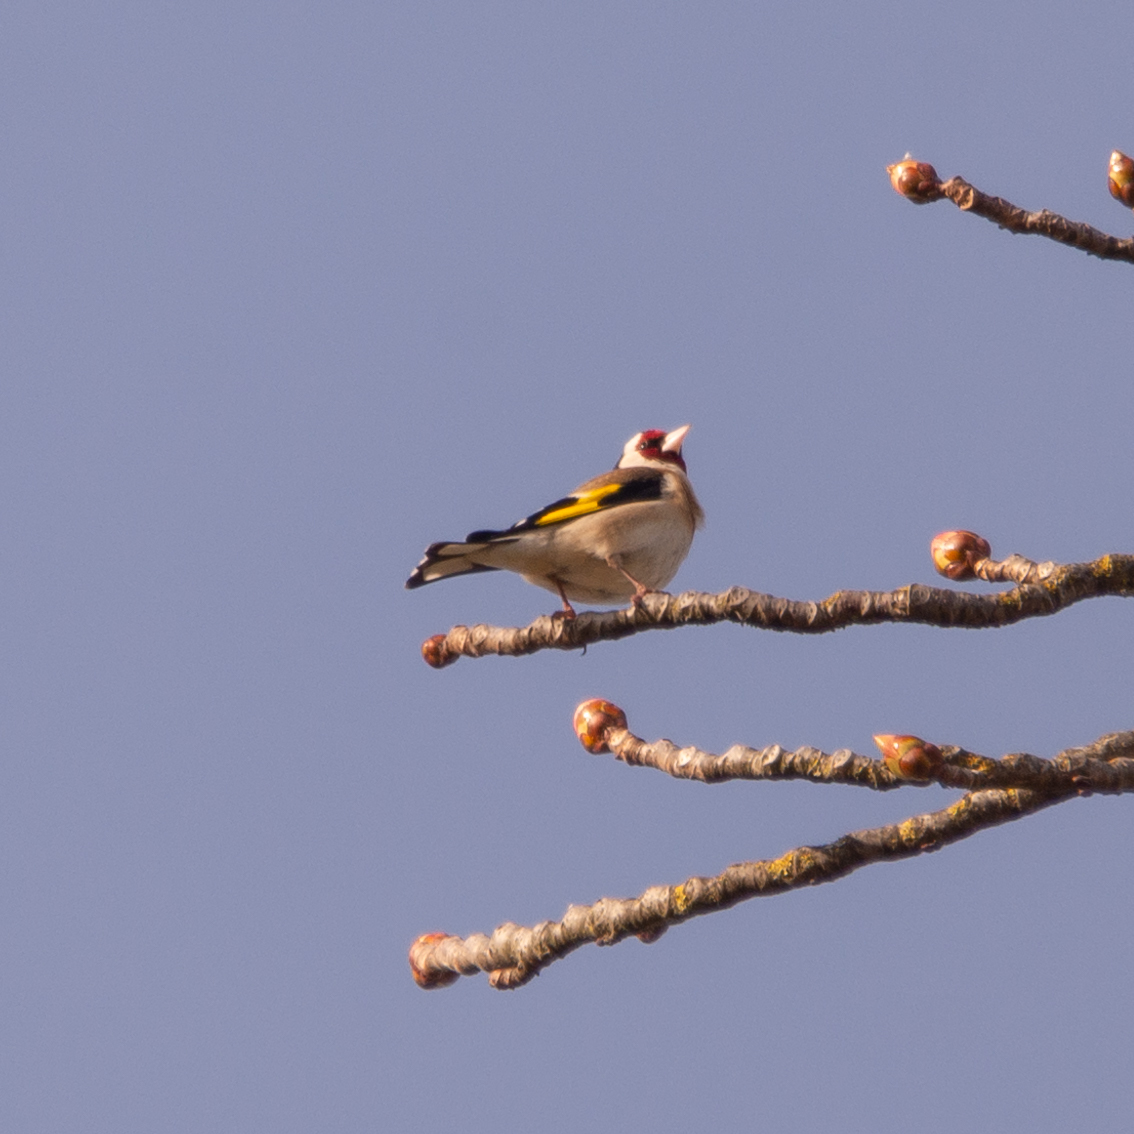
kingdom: Animalia
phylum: Chordata
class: Aves
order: Passeriformes
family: Fringillidae
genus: Carduelis
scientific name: Carduelis carduelis
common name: European goldfinch
